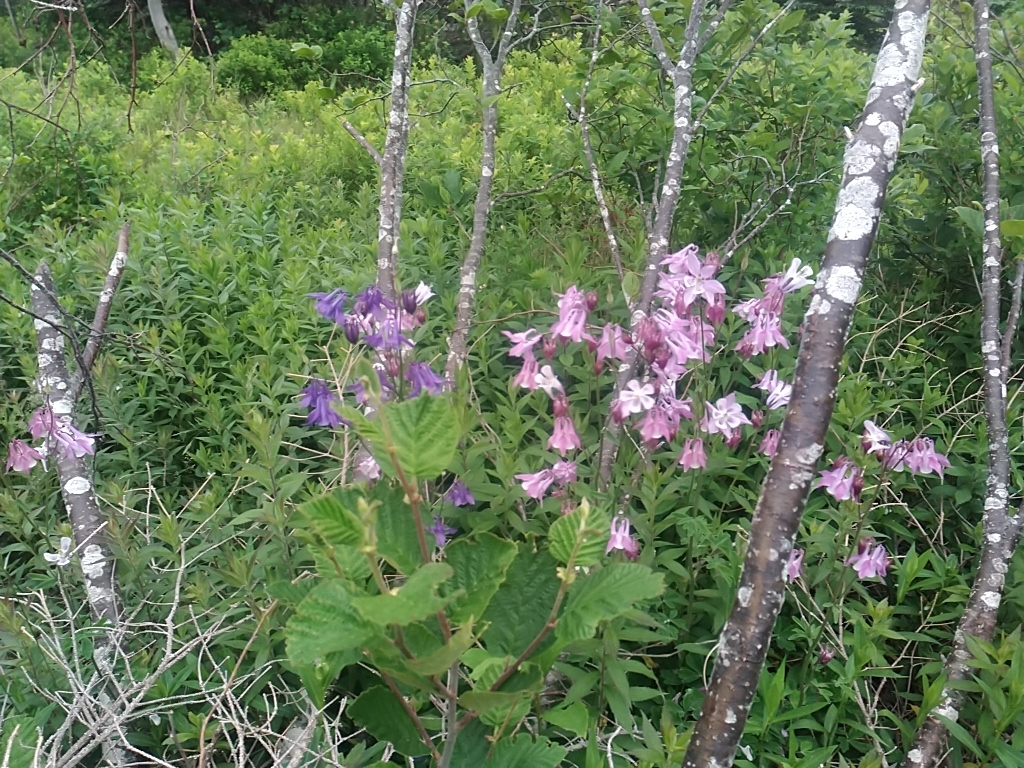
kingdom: Plantae
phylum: Tracheophyta
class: Magnoliopsida
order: Ranunculales
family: Ranunculaceae
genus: Aquilegia
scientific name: Aquilegia vulgaris
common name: Columbine
